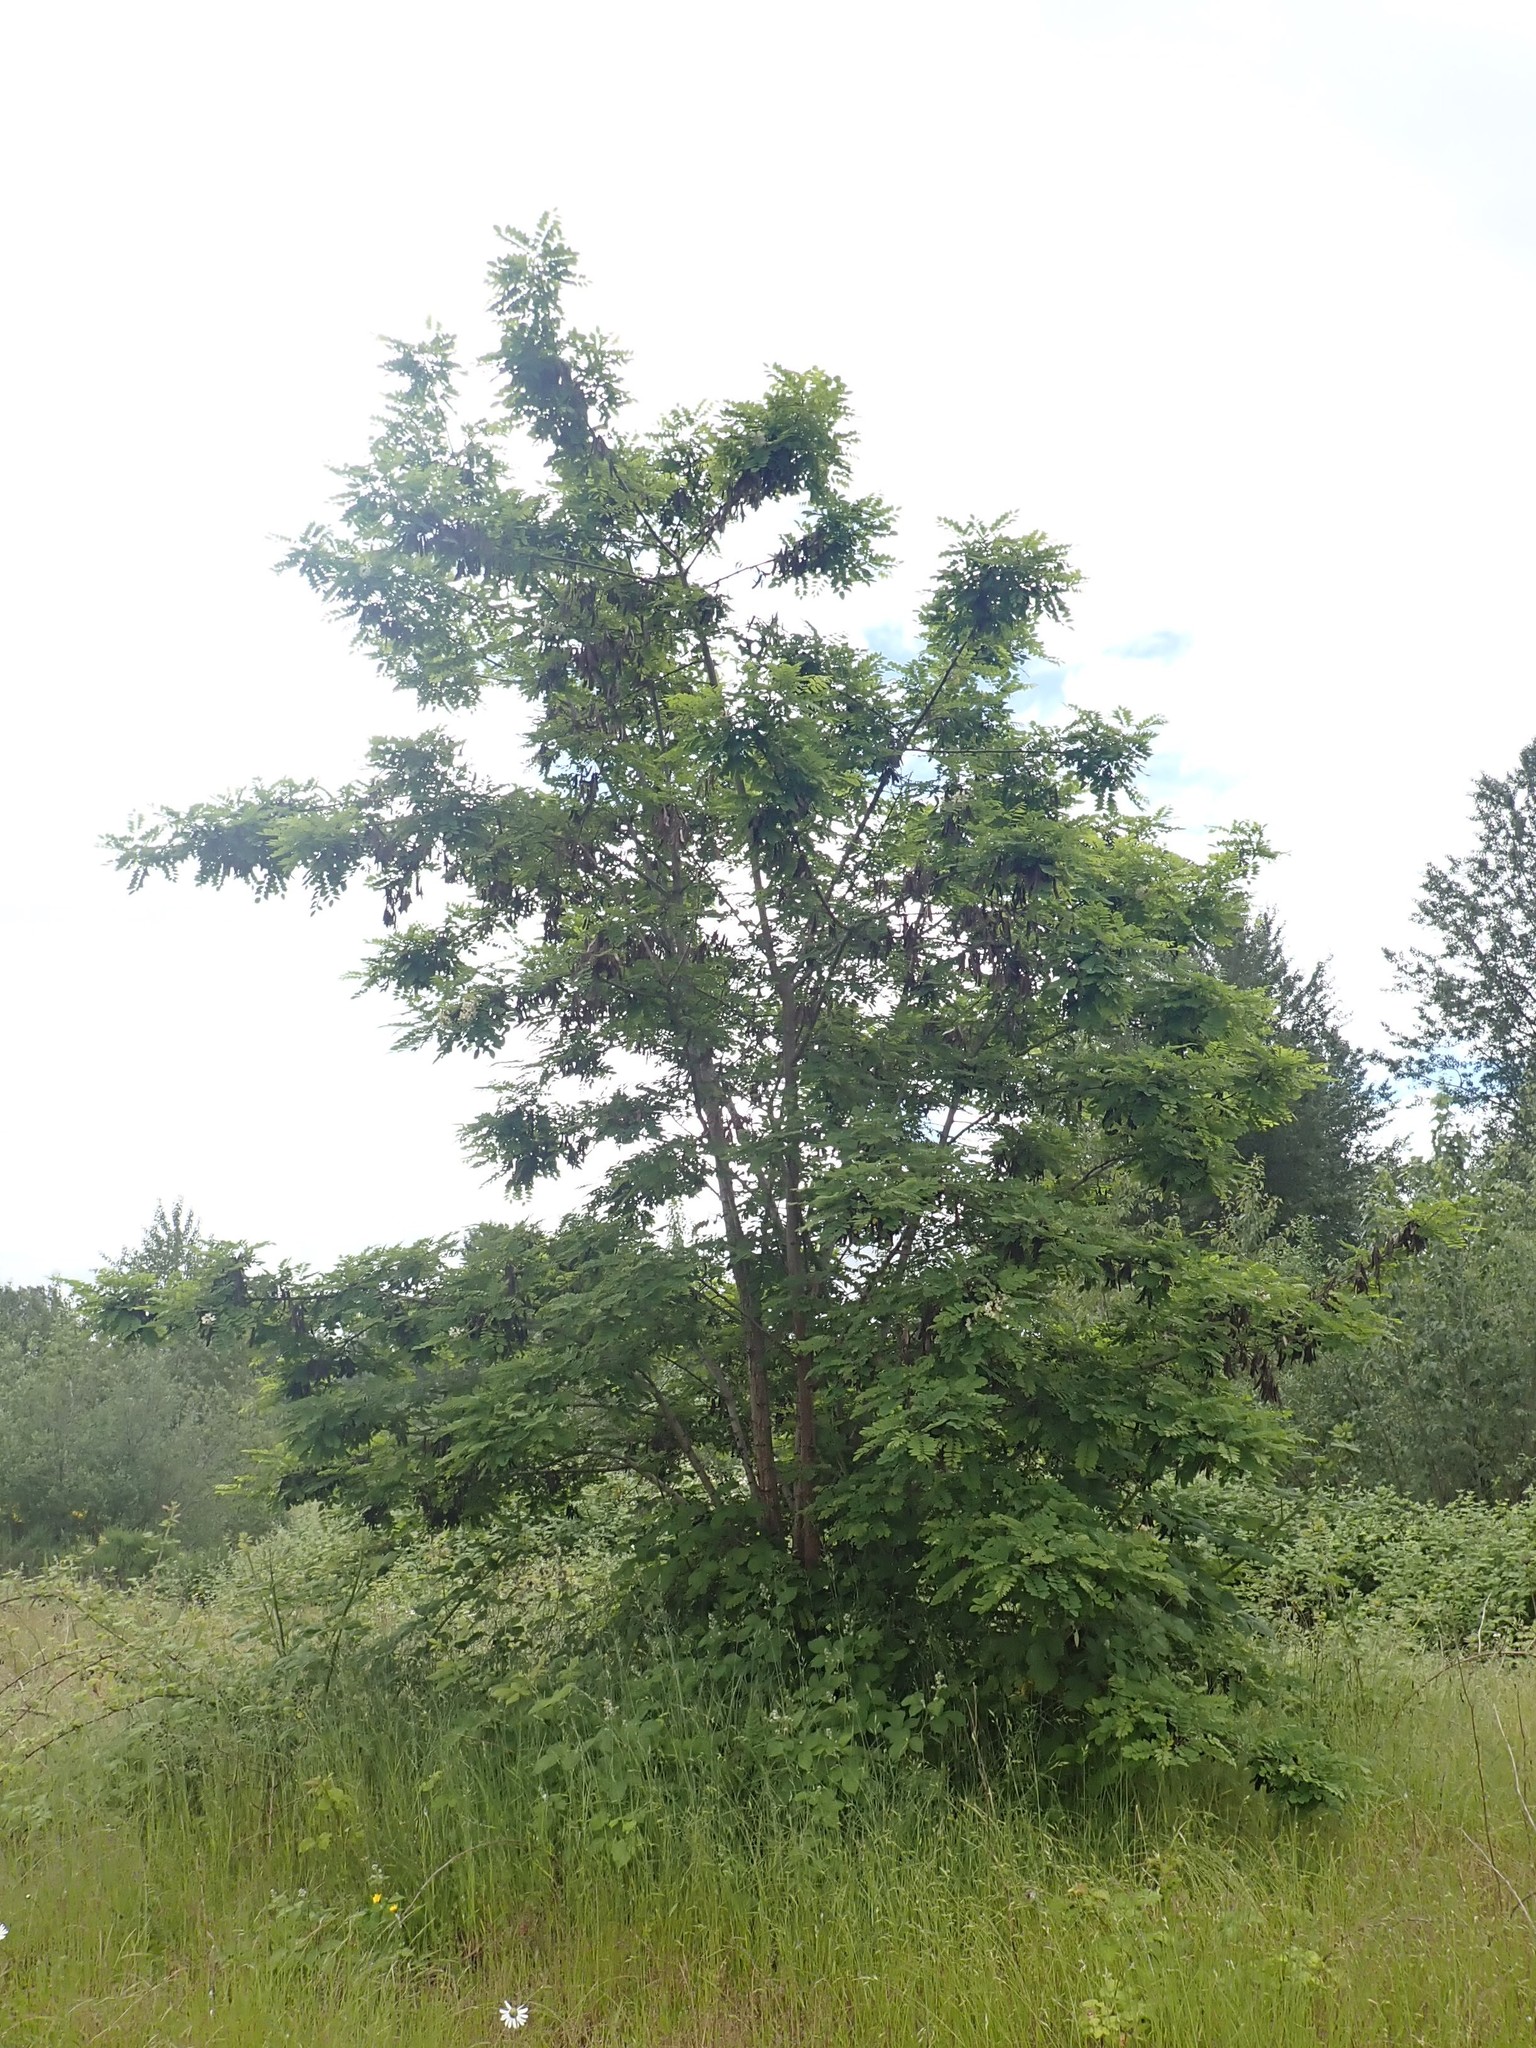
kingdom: Plantae
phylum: Tracheophyta
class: Magnoliopsida
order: Fabales
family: Fabaceae
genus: Robinia
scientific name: Robinia pseudoacacia
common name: Black locust
